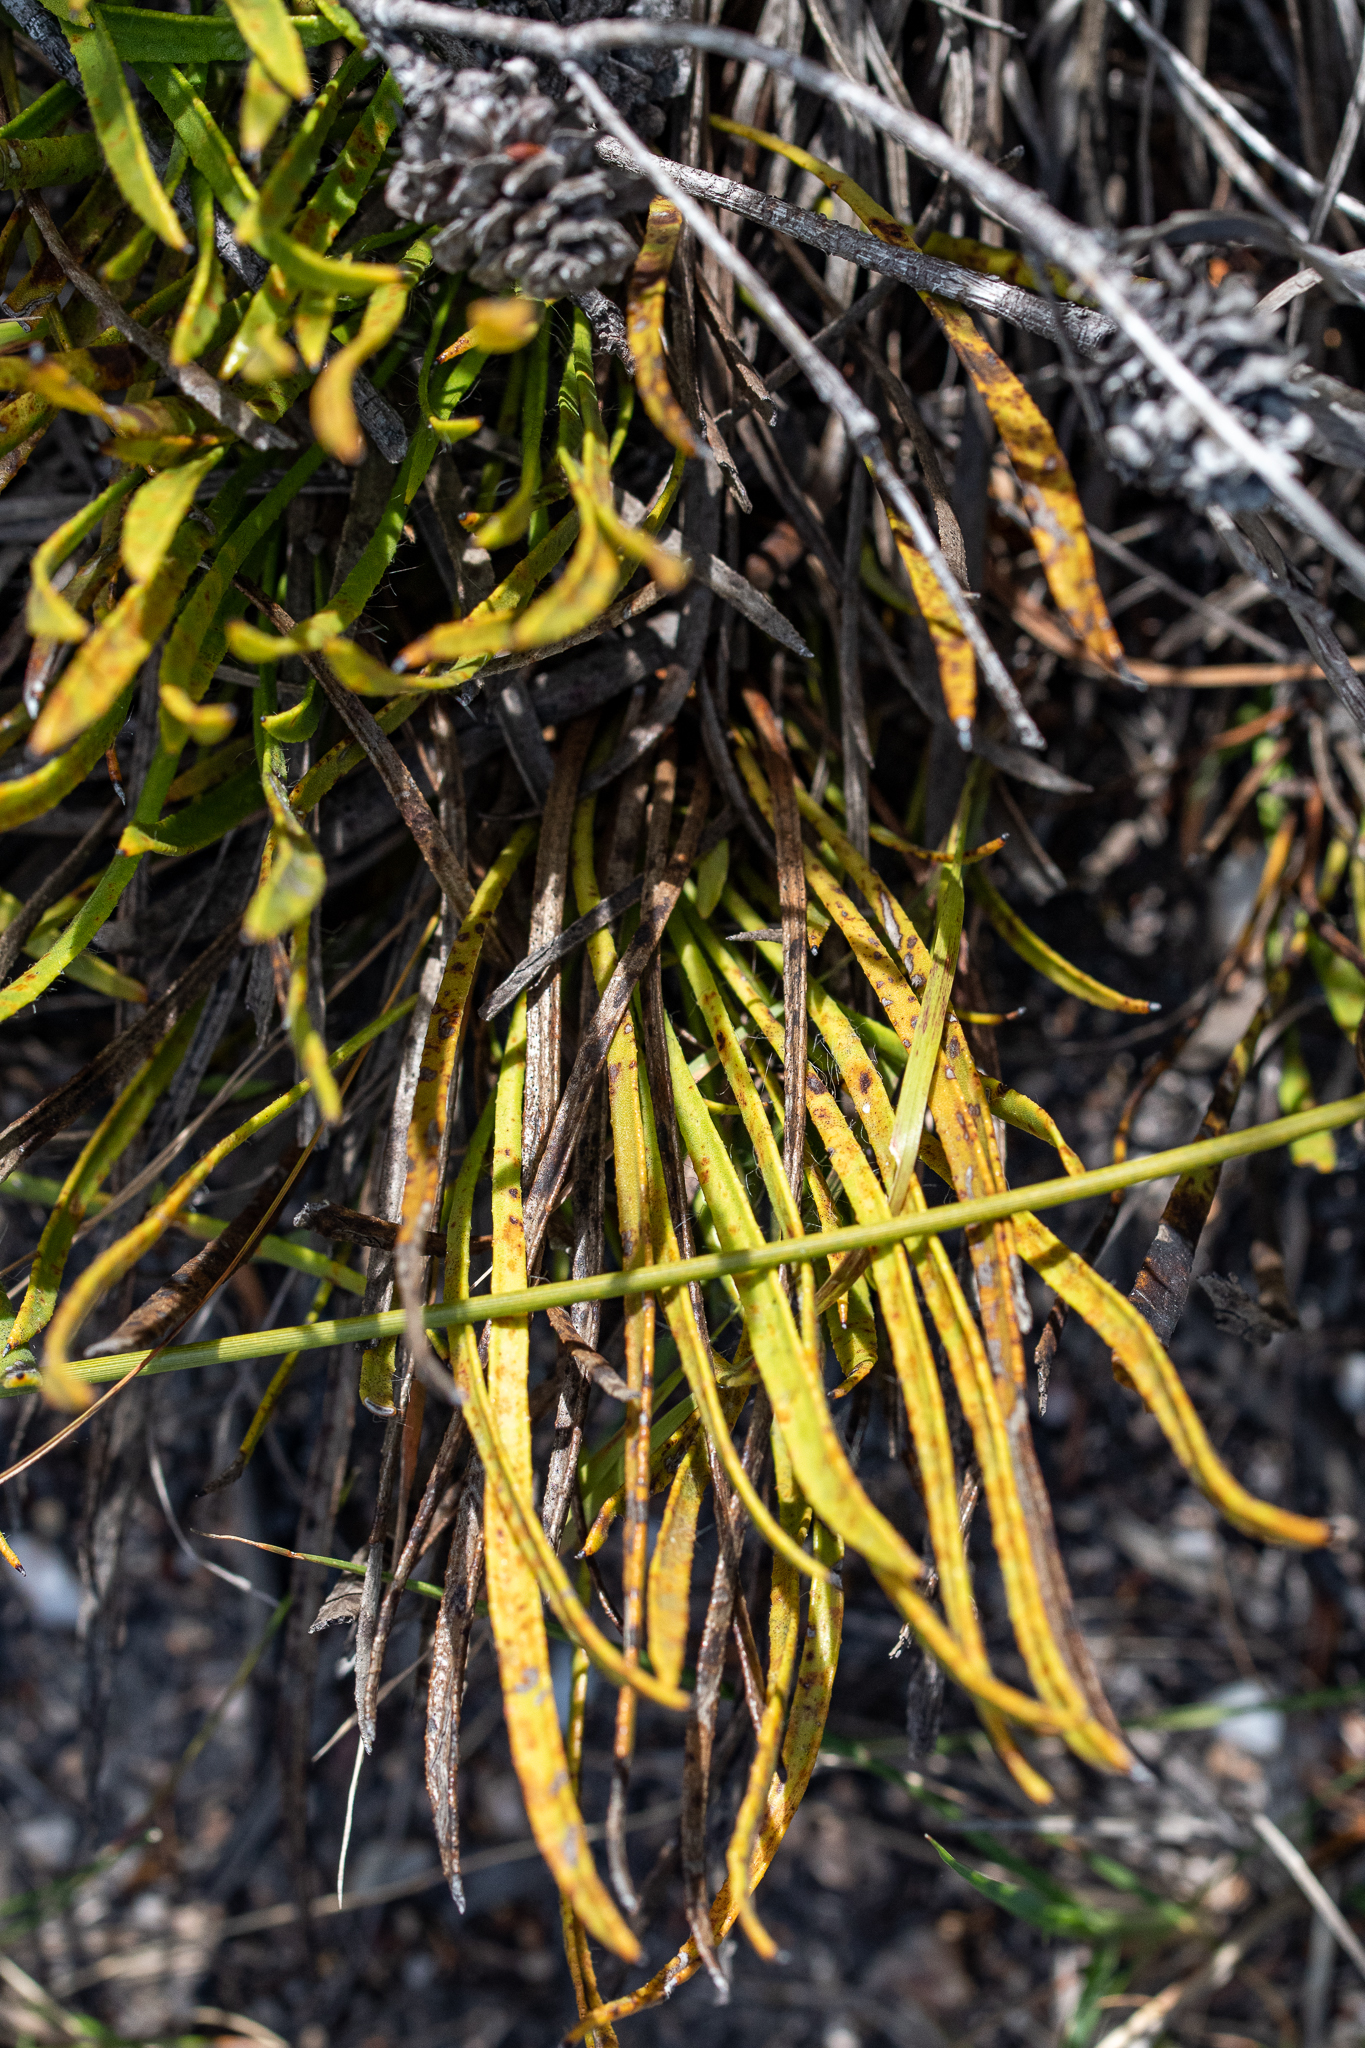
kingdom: Plantae
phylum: Tracheophyta
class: Magnoliopsida
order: Proteales
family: Proteaceae
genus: Protea
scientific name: Protea scabra
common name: Sandpaper-leaf sugarbush
